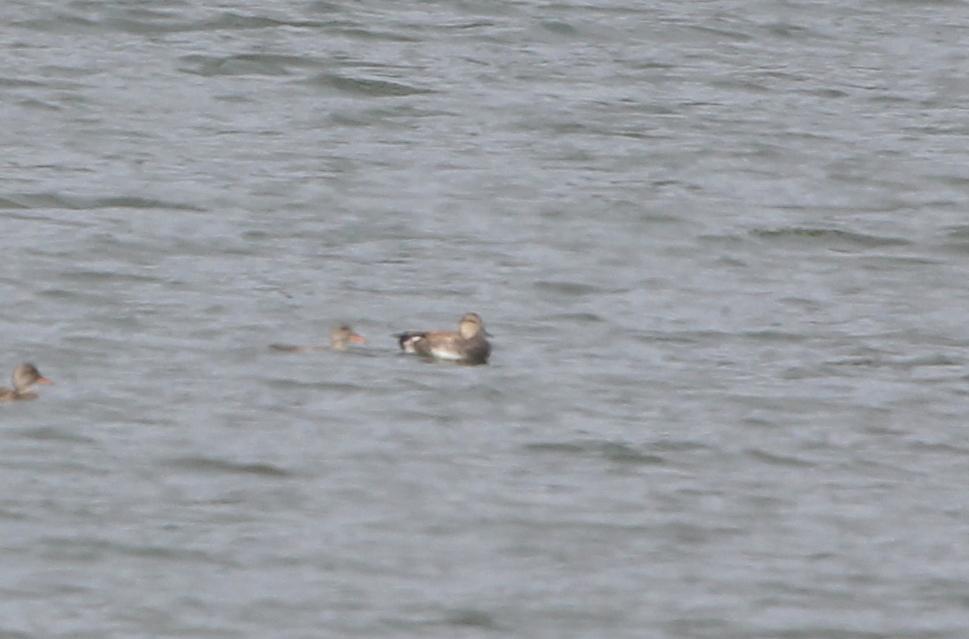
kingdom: Animalia
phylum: Chordata
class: Aves
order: Anseriformes
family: Anatidae
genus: Mareca
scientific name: Mareca strepera
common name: Gadwall
